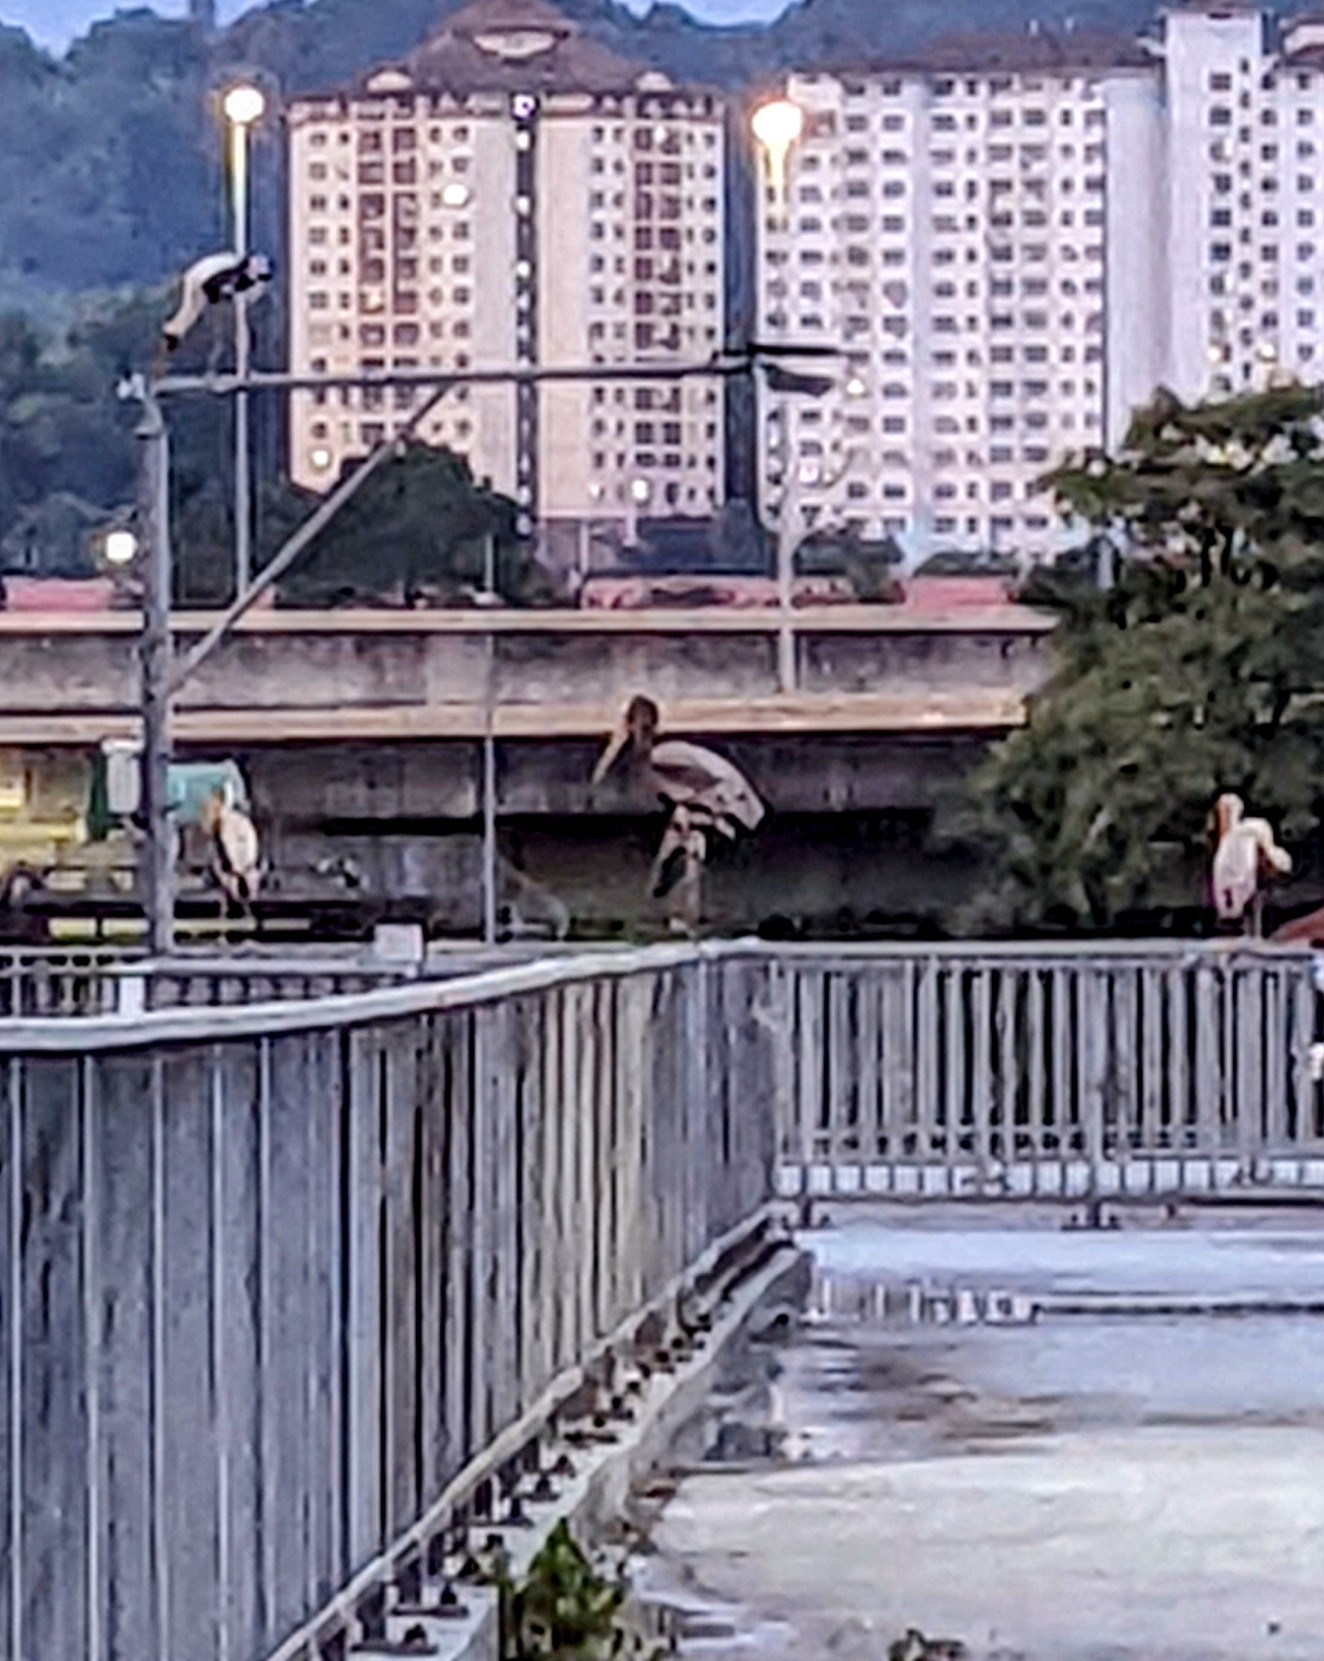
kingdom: Animalia
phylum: Chordata
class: Aves
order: Ciconiiformes
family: Ciconiidae
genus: Mycteria
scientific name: Mycteria leucocephala
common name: Painted stork
